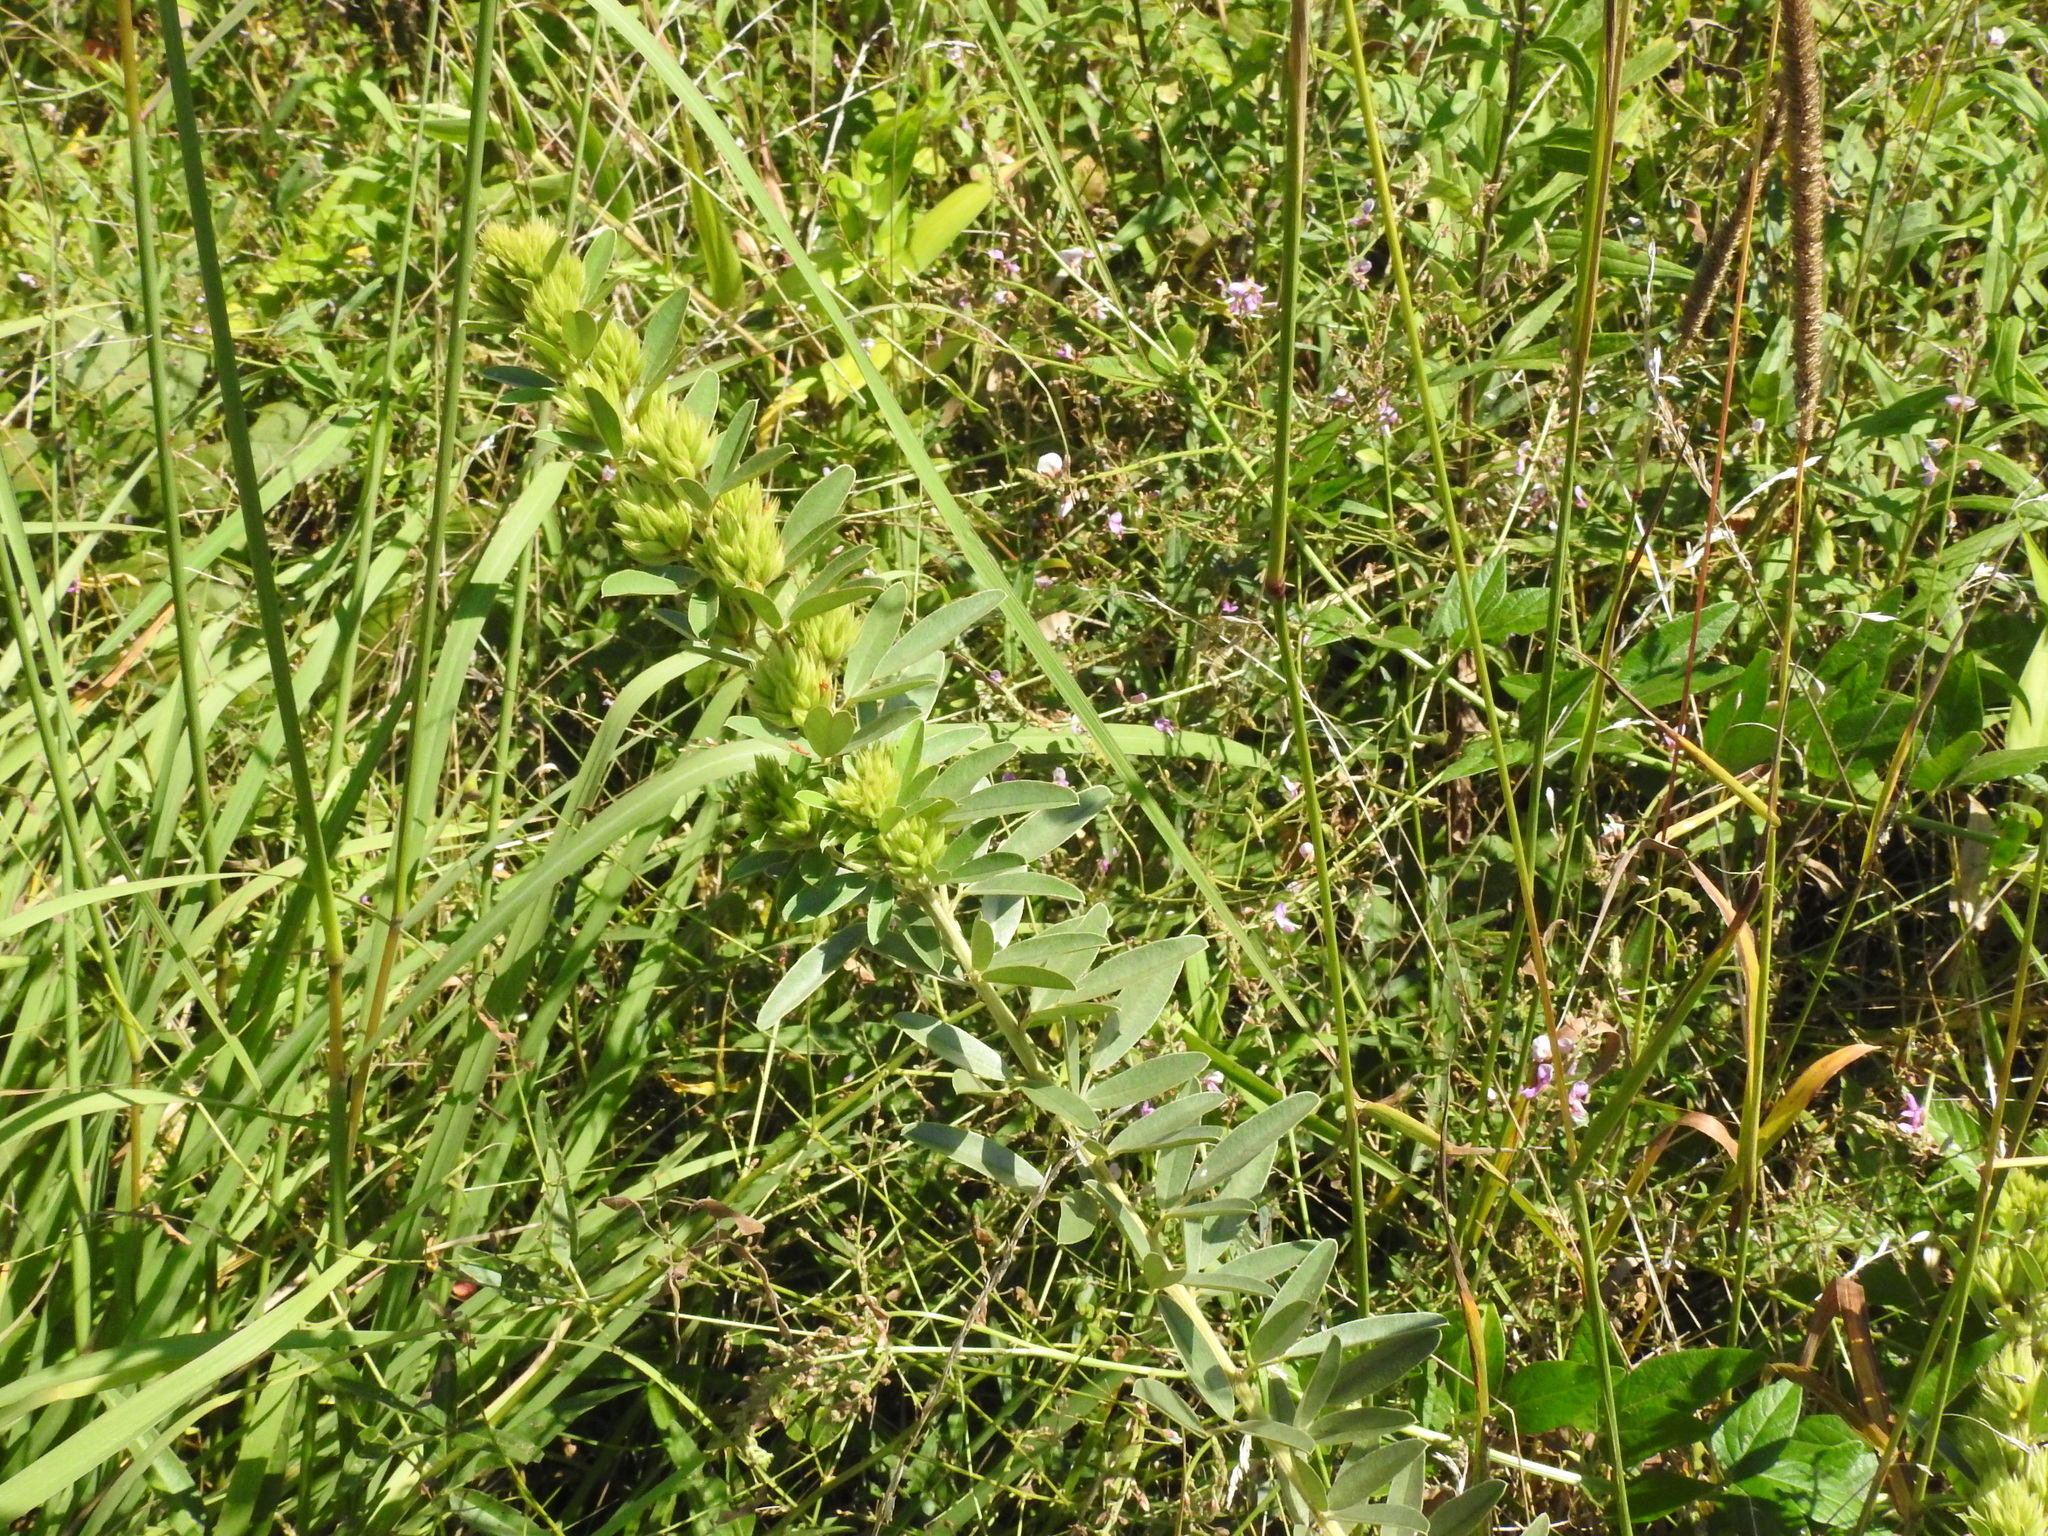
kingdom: Plantae
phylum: Tracheophyta
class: Magnoliopsida
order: Fabales
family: Fabaceae
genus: Lespedeza
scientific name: Lespedeza capitata
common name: Dusty clover
